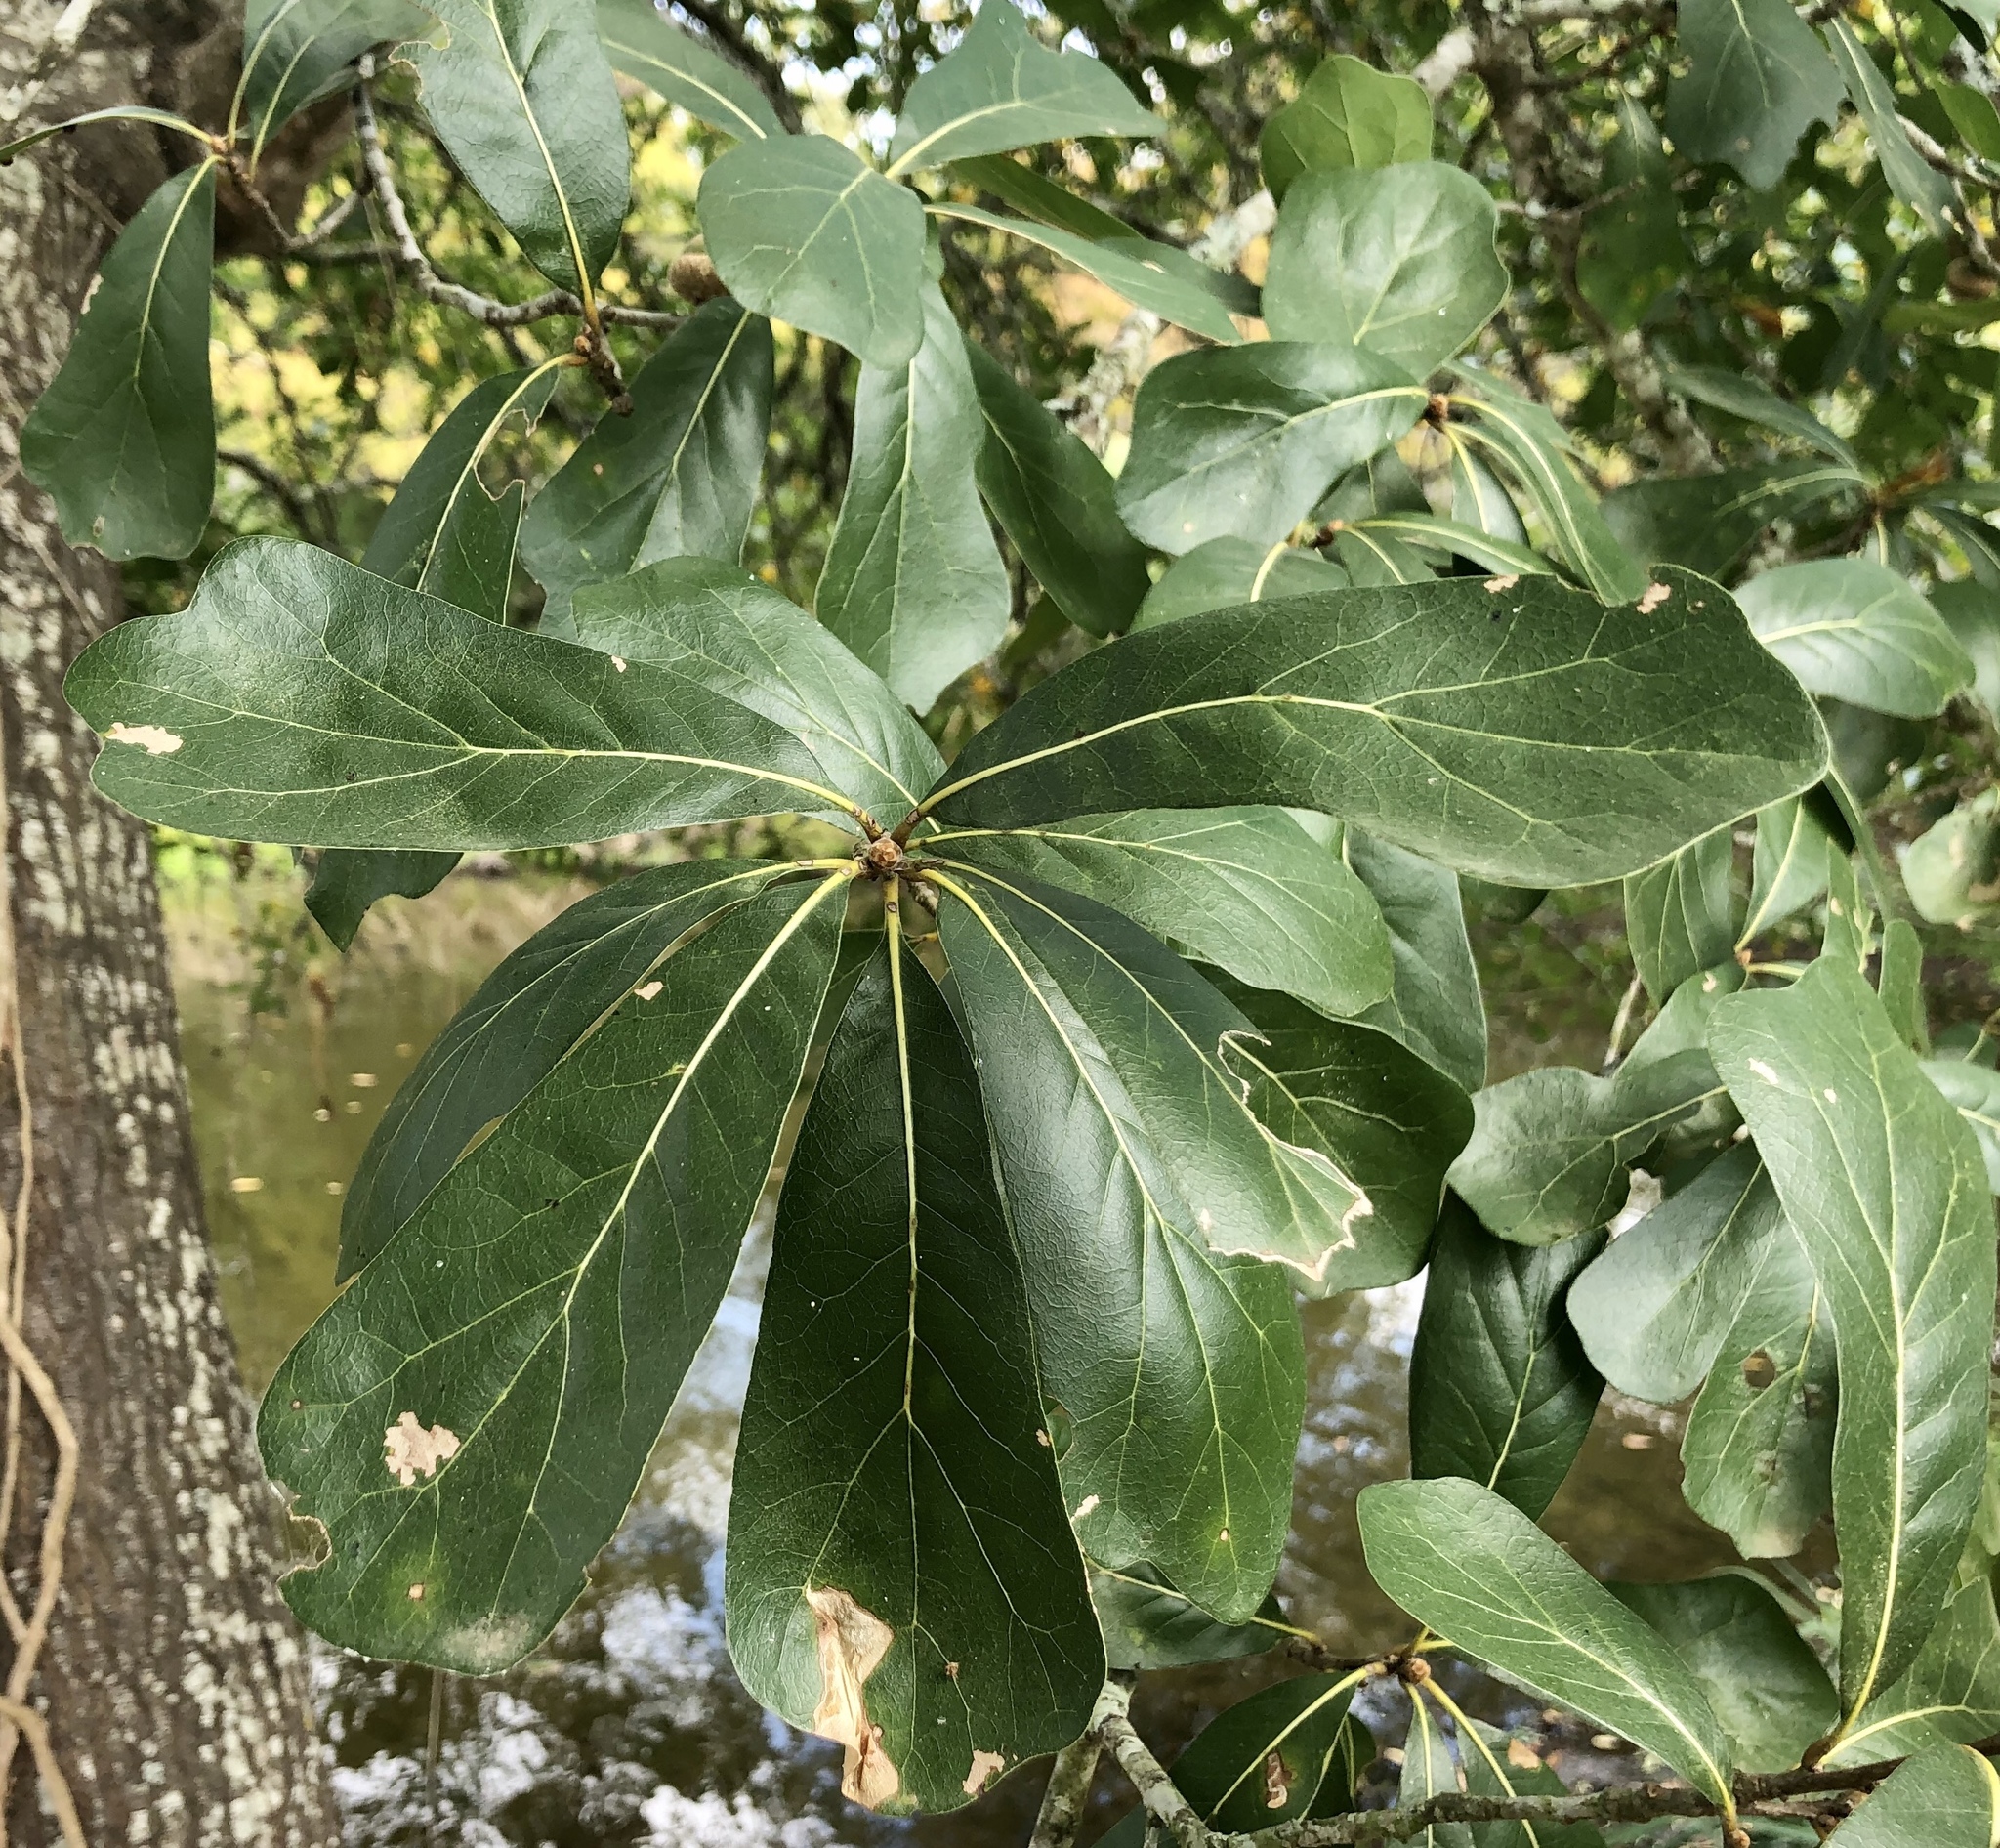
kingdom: Plantae
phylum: Tracheophyta
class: Magnoliopsida
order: Fagales
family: Fagaceae
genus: Quercus
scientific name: Quercus nigra
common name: Water oak
